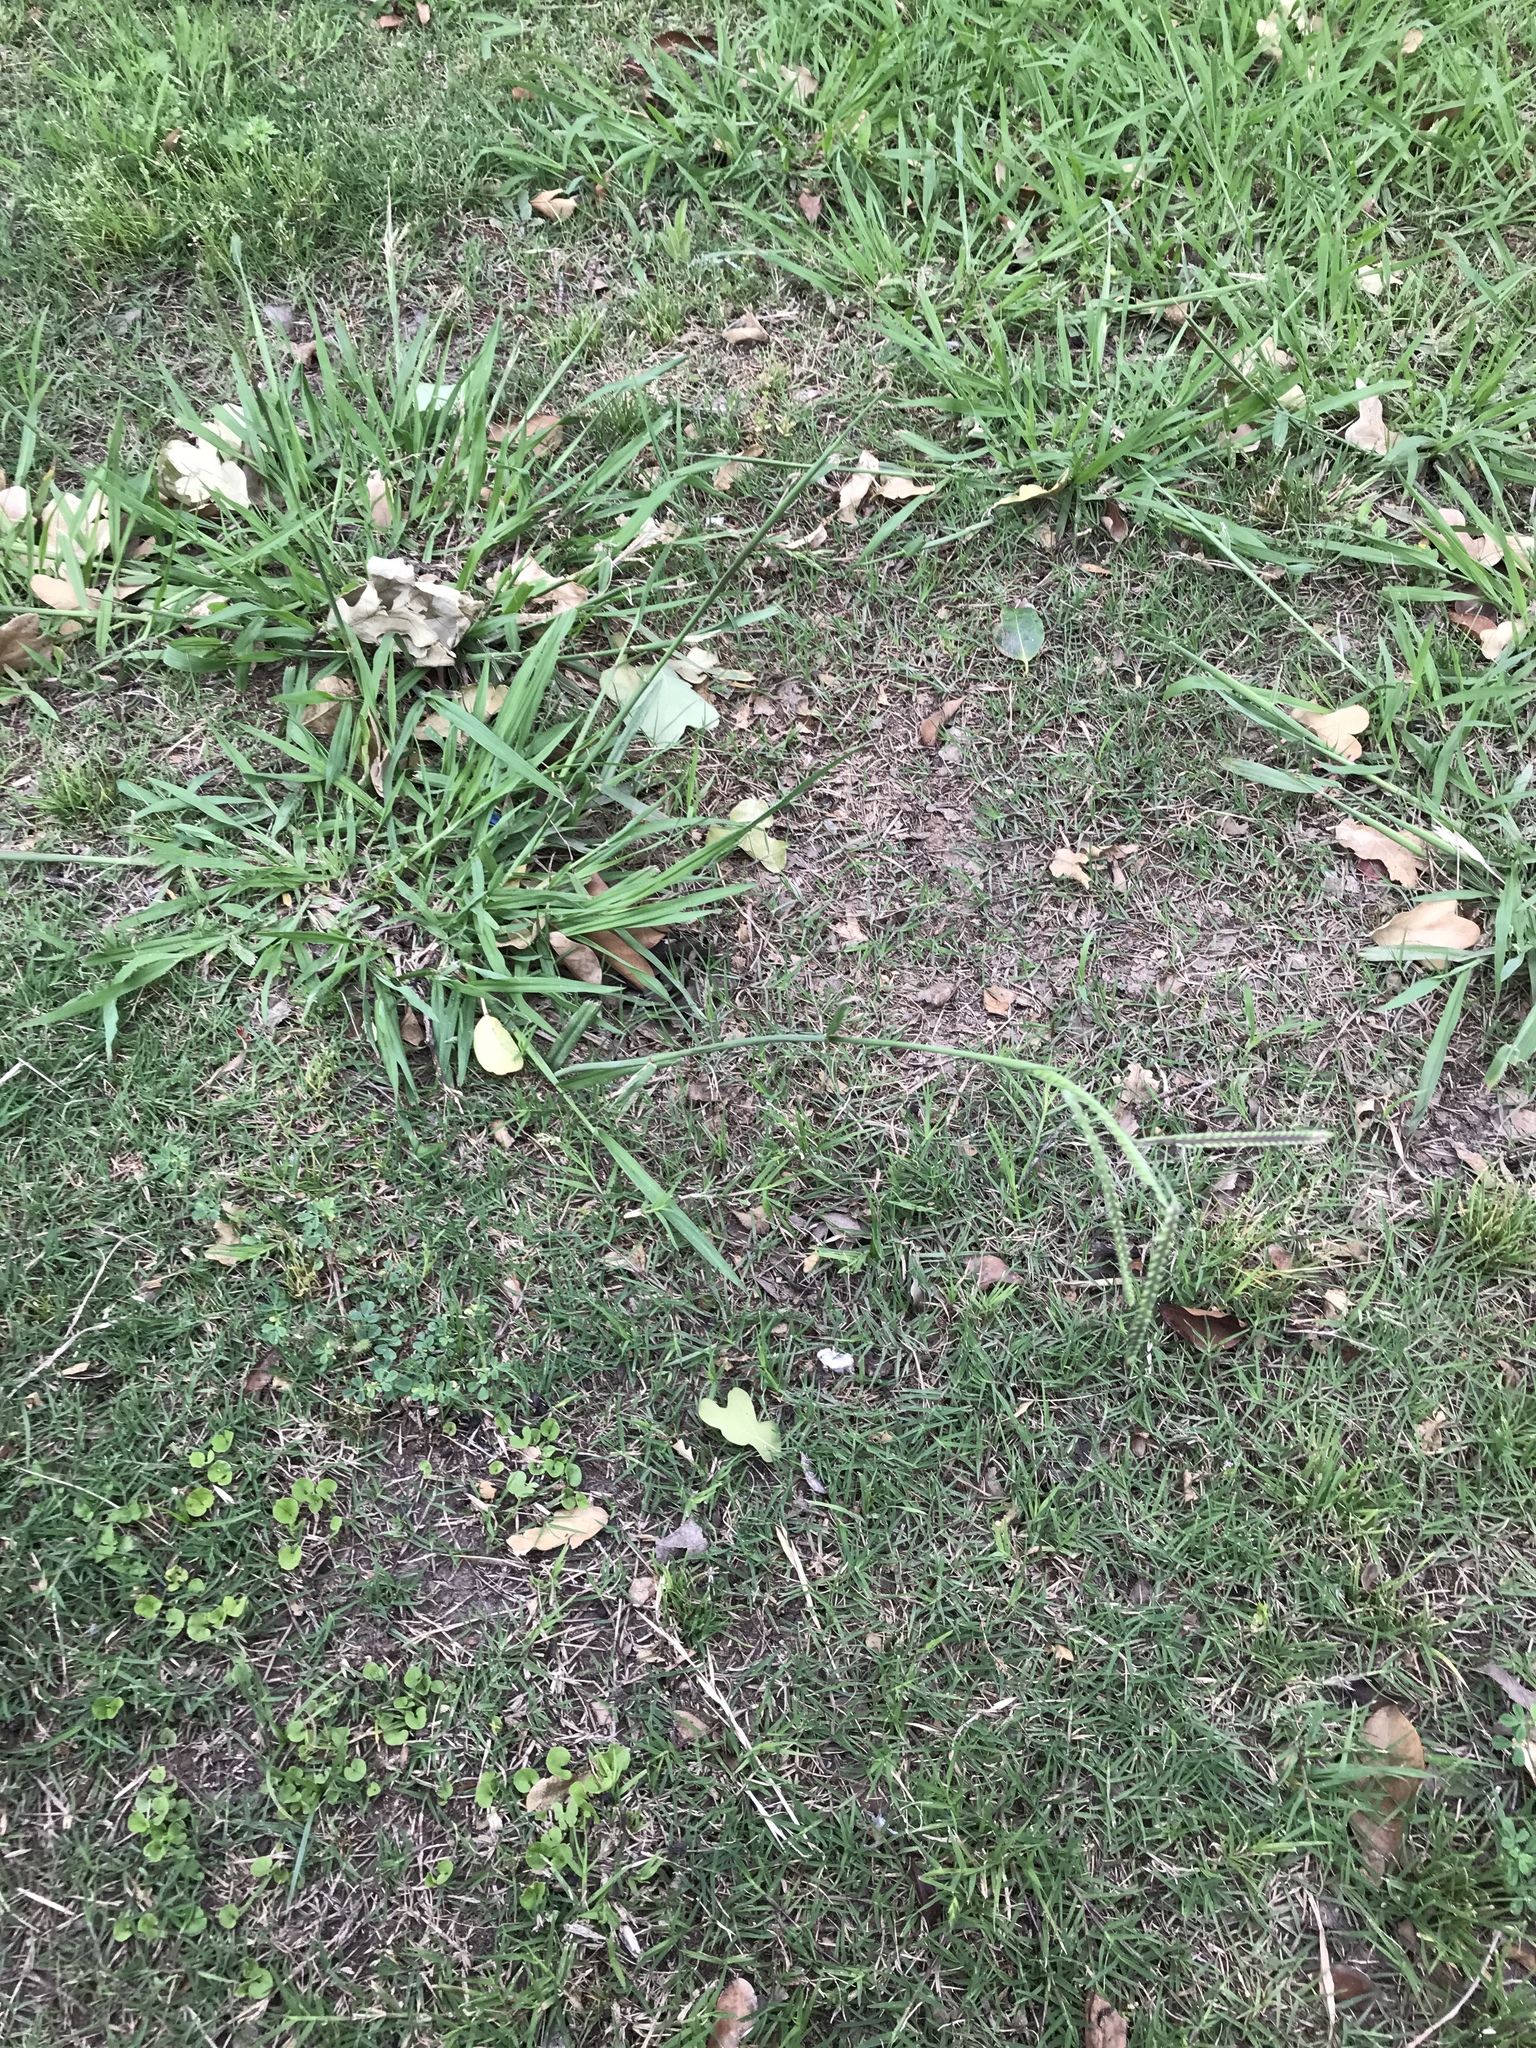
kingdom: Plantae
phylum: Tracheophyta
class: Liliopsida
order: Poales
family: Poaceae
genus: Paspalum
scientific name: Paspalum dilatatum
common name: Dallisgrass
